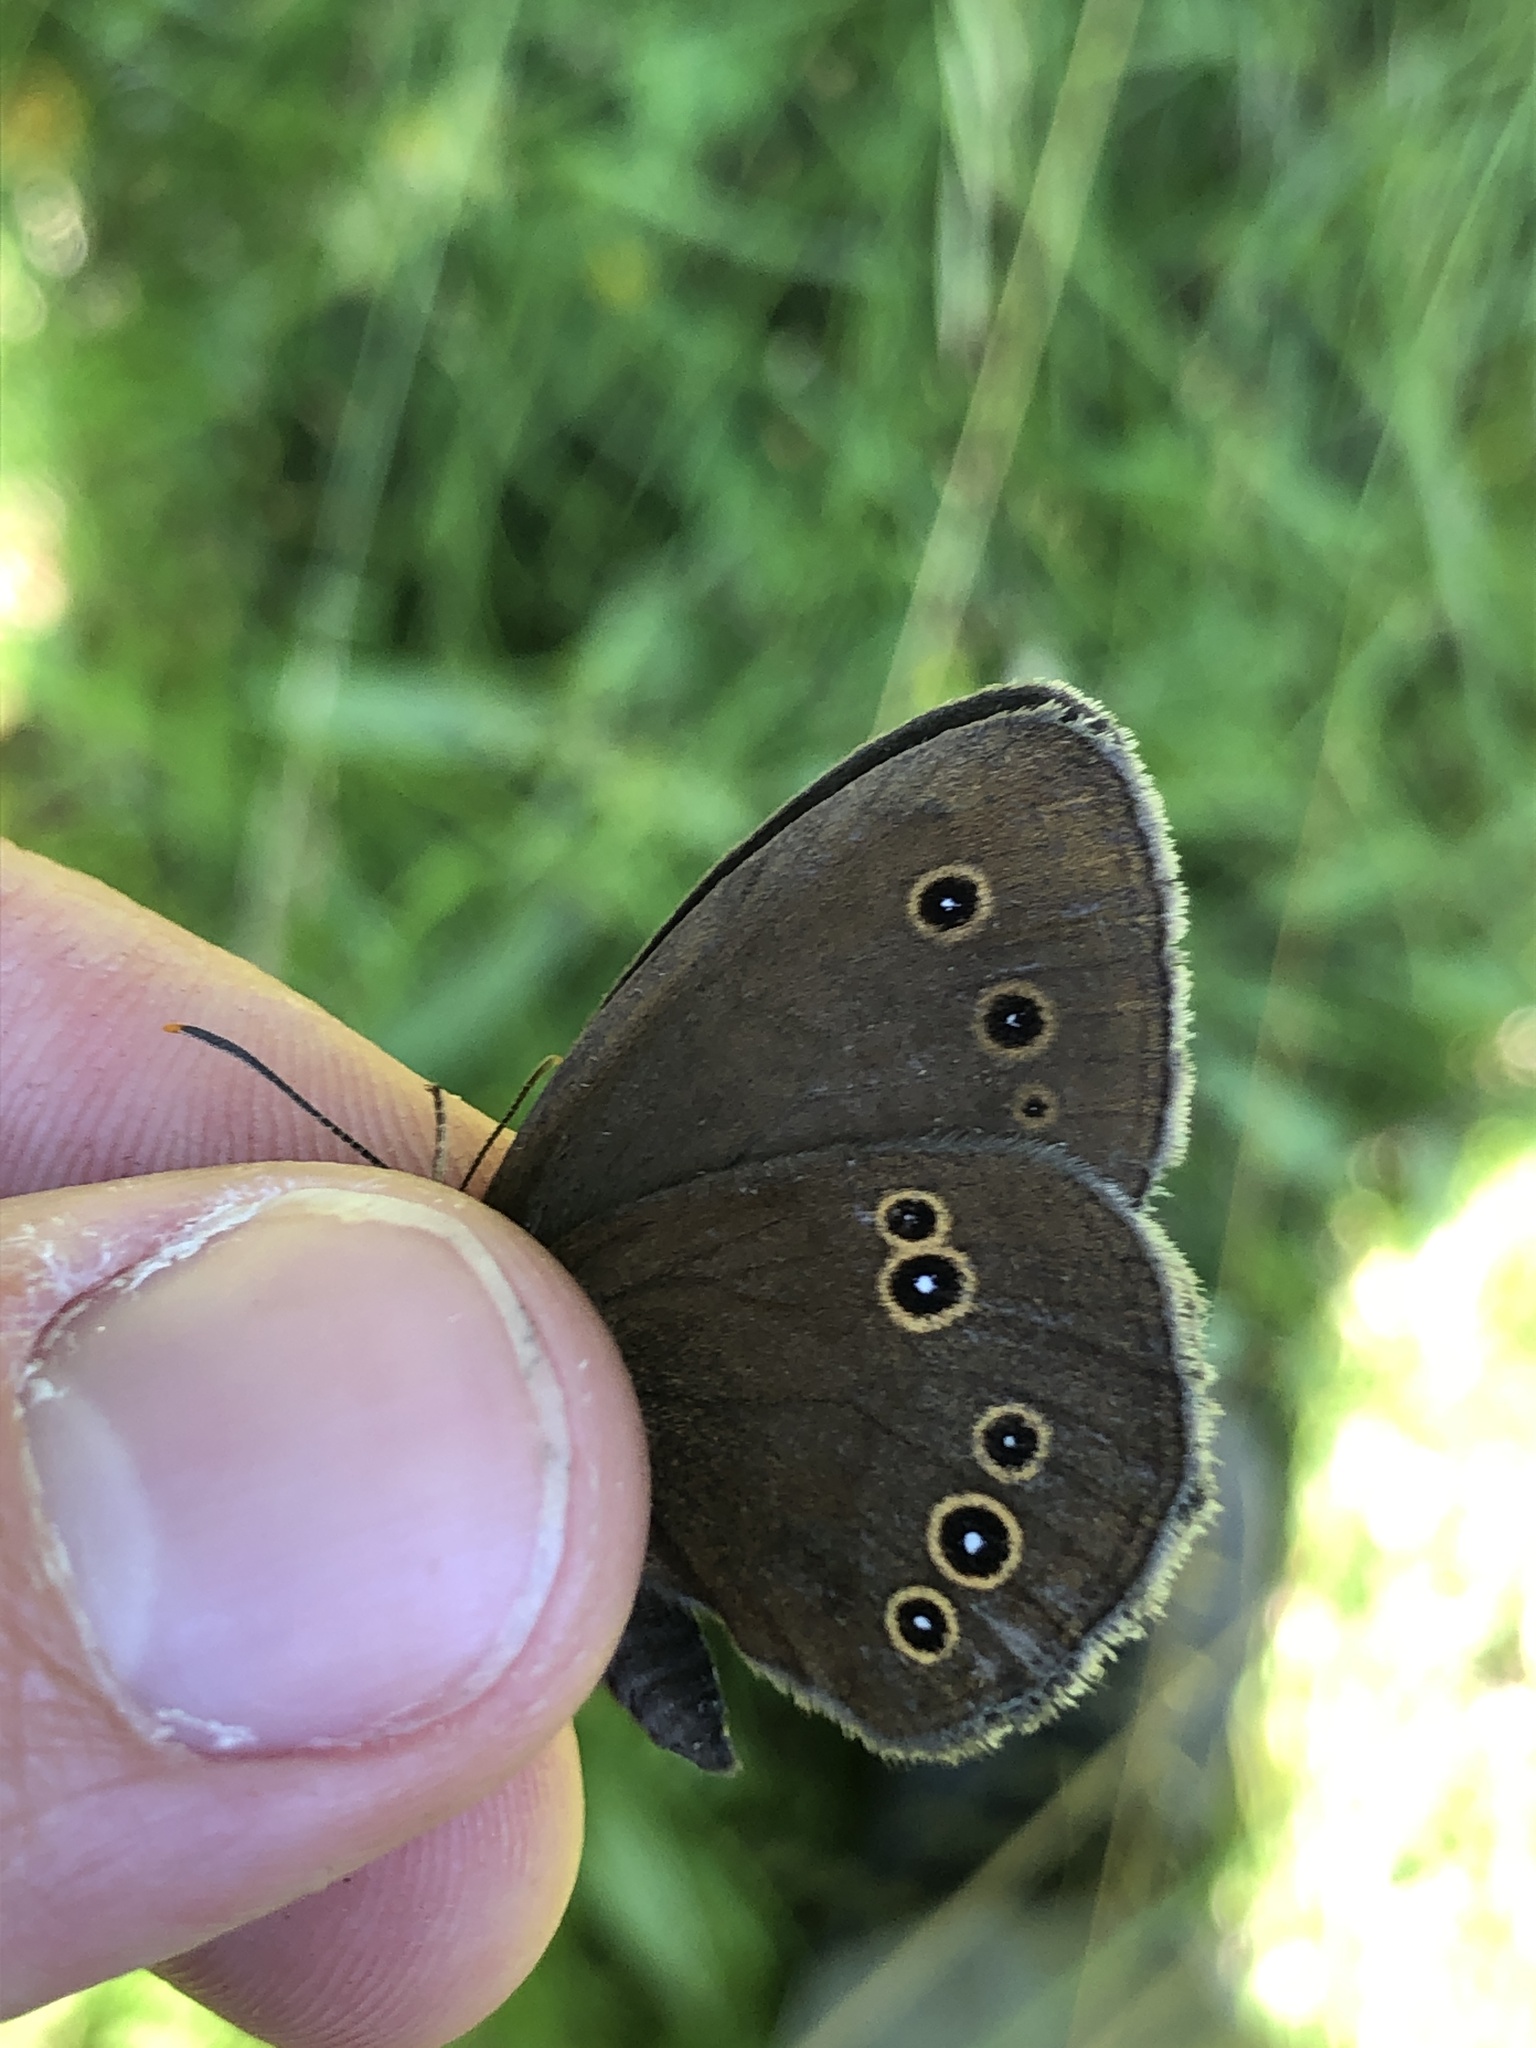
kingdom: Animalia
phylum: Arthropoda
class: Insecta
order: Lepidoptera
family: Nymphalidae
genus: Aphantopus
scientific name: Aphantopus hyperantus
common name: Ringlet
